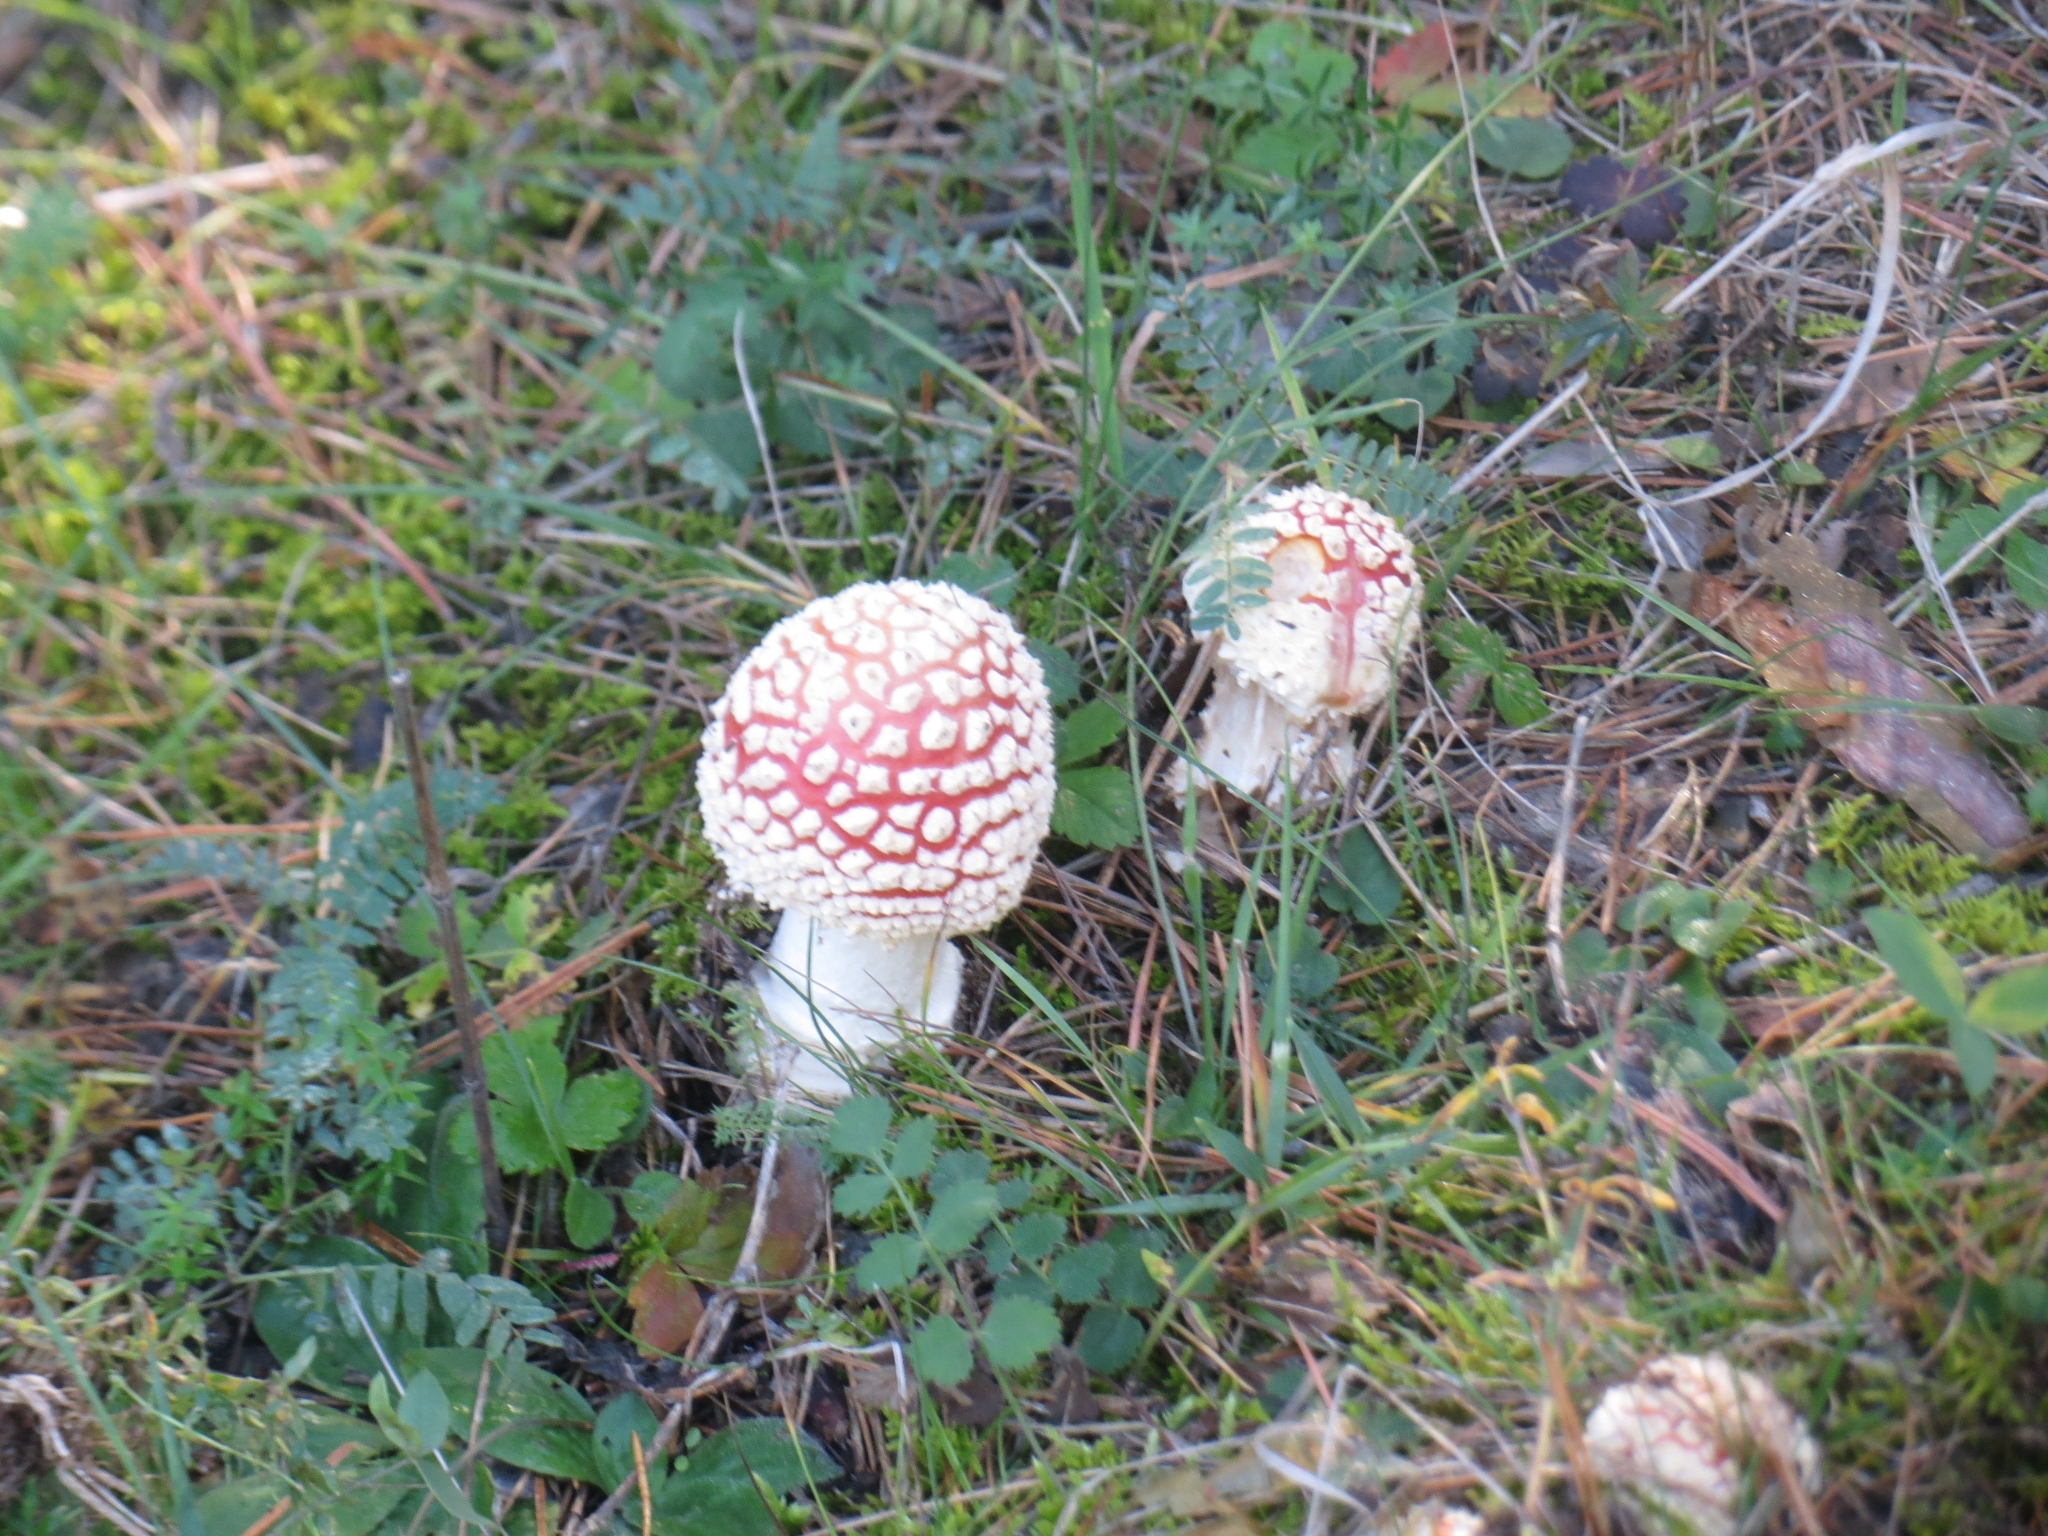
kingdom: Fungi
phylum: Basidiomycota
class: Agaricomycetes
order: Agaricales
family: Amanitaceae
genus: Amanita
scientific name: Amanita muscaria
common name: Fly agaric
